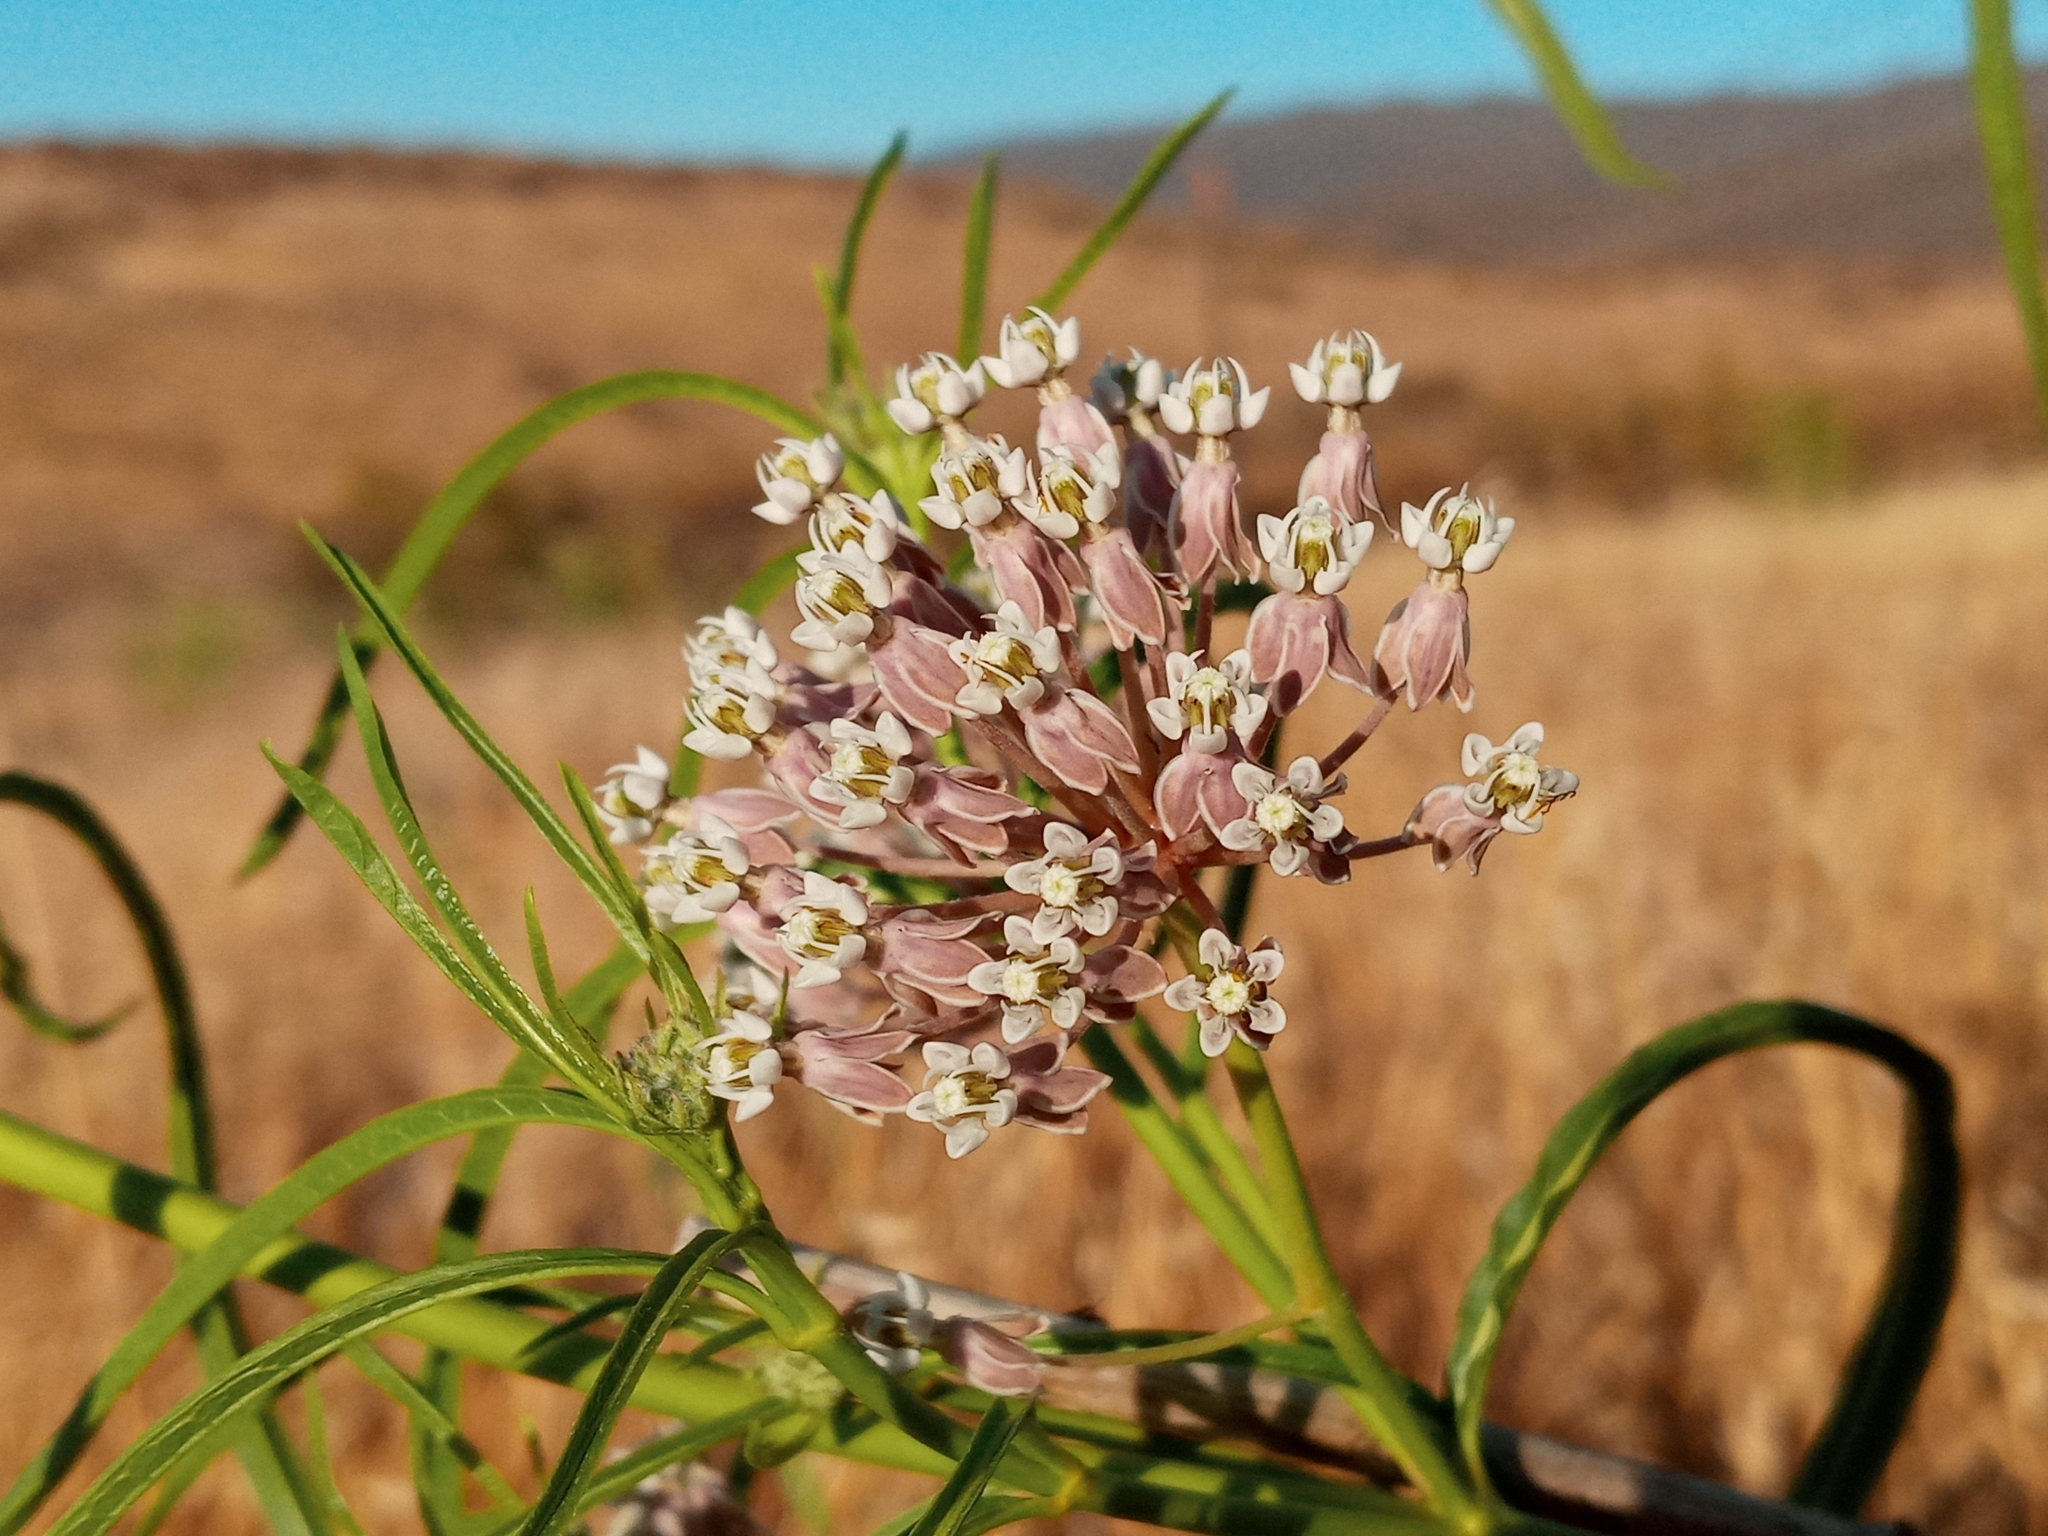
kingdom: Plantae
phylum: Tracheophyta
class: Magnoliopsida
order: Gentianales
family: Apocynaceae
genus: Asclepias
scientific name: Asclepias fascicularis
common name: Mexican milkweed
